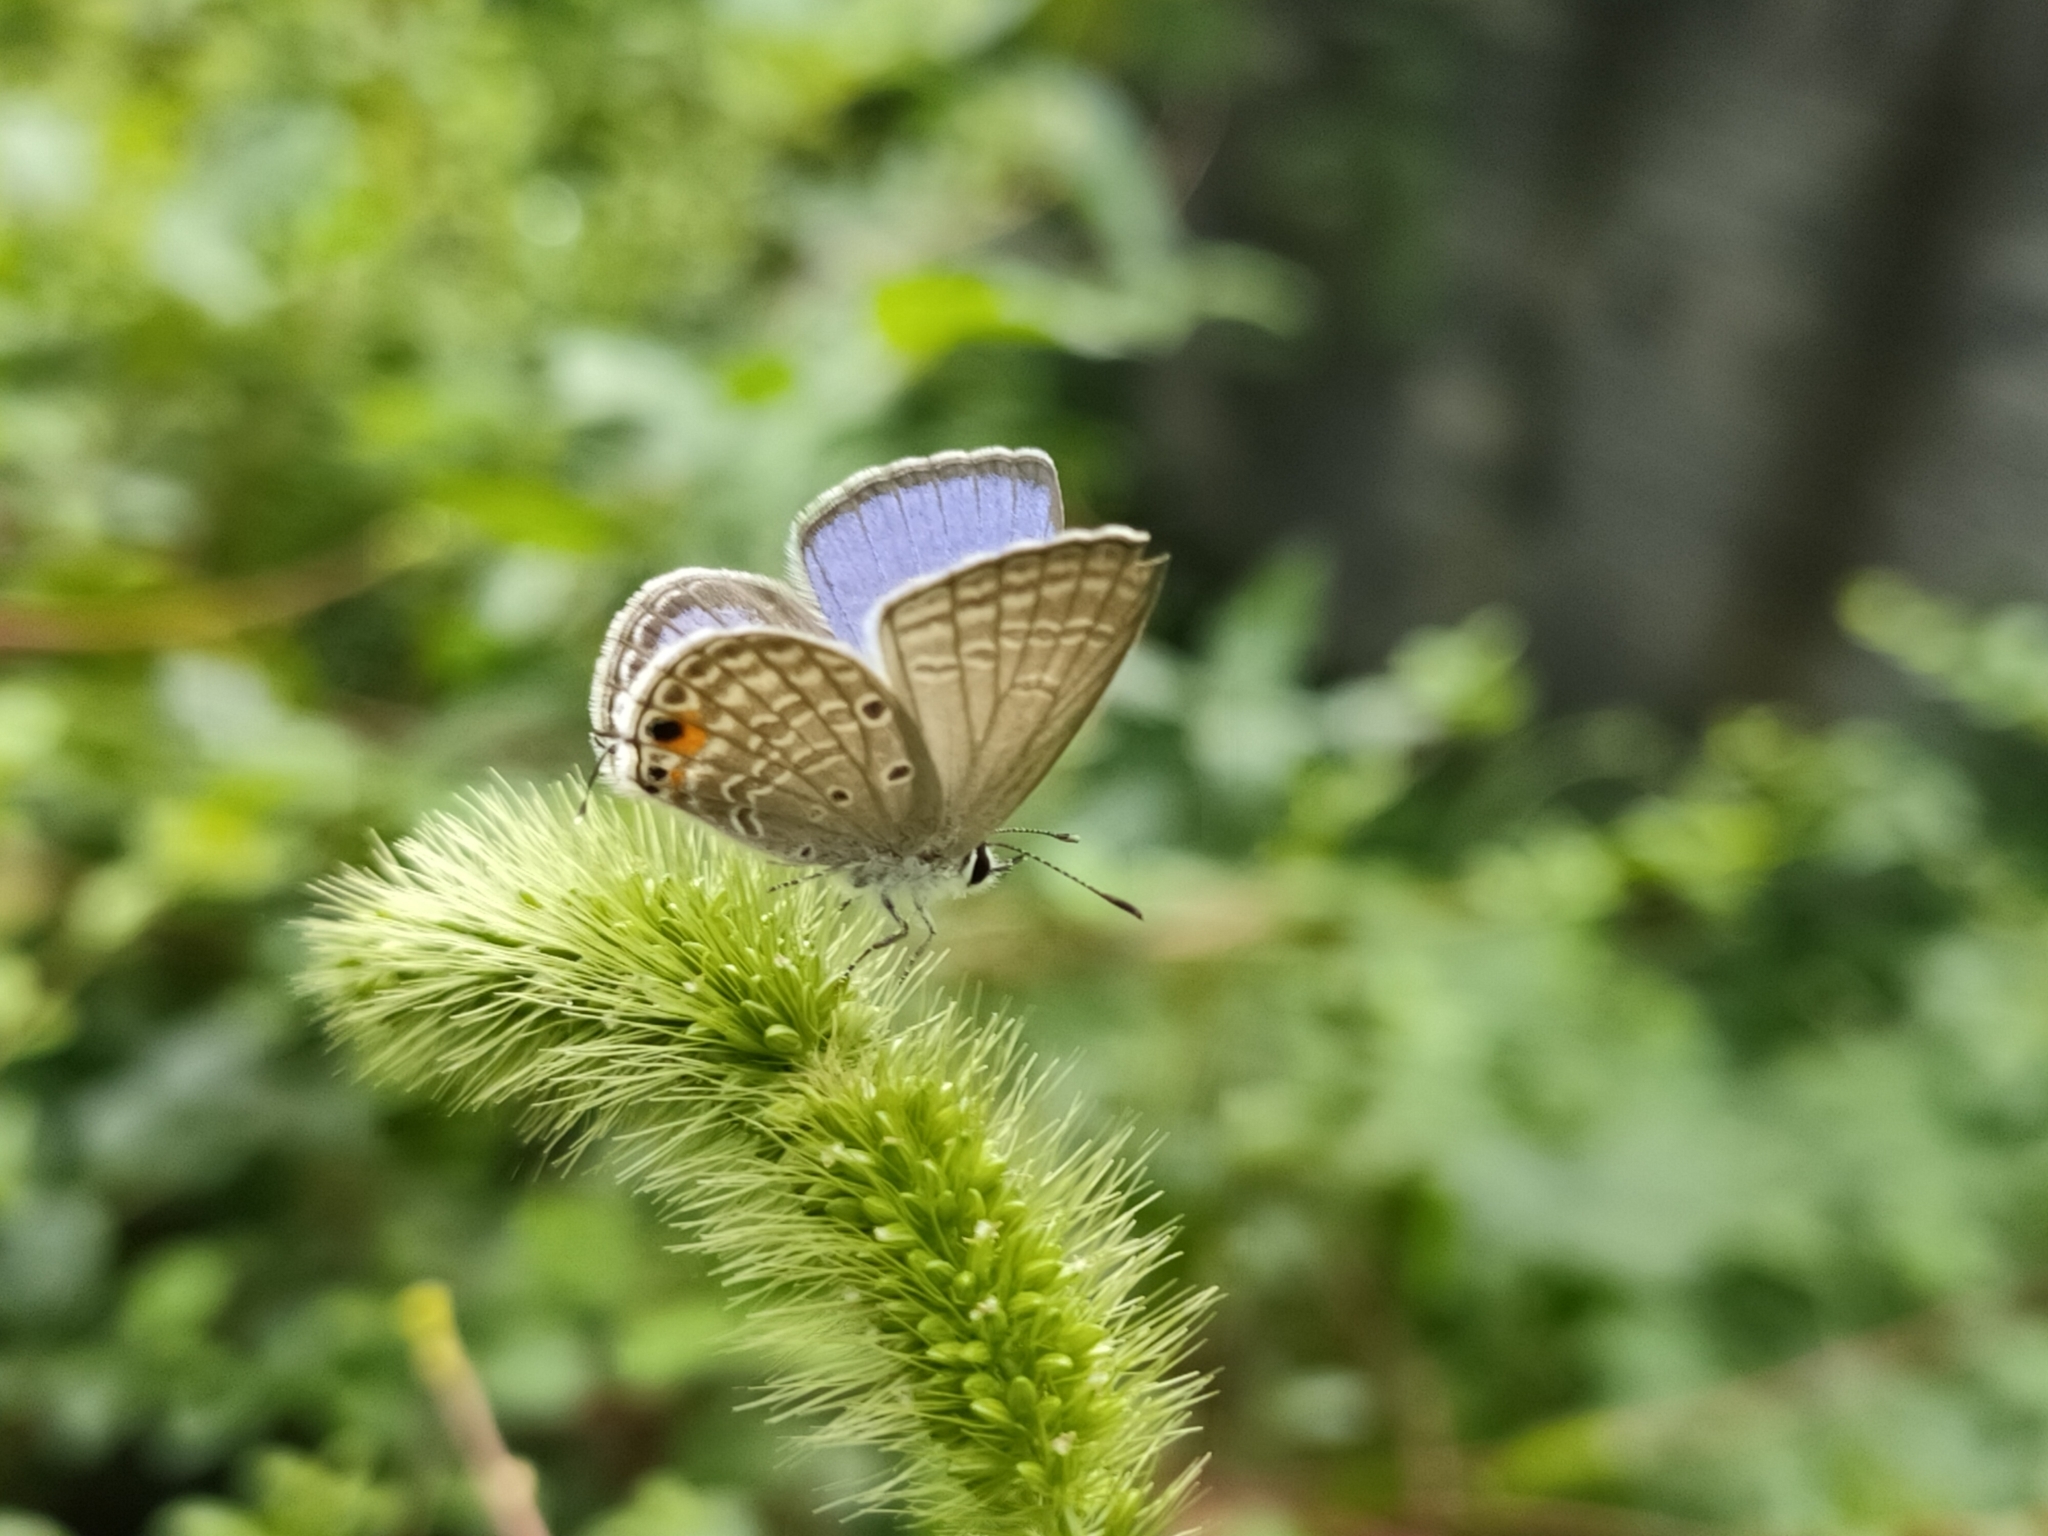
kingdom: Animalia
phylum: Arthropoda
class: Insecta
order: Lepidoptera
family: Lycaenidae
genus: Luthrodes
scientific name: Luthrodes pandava
